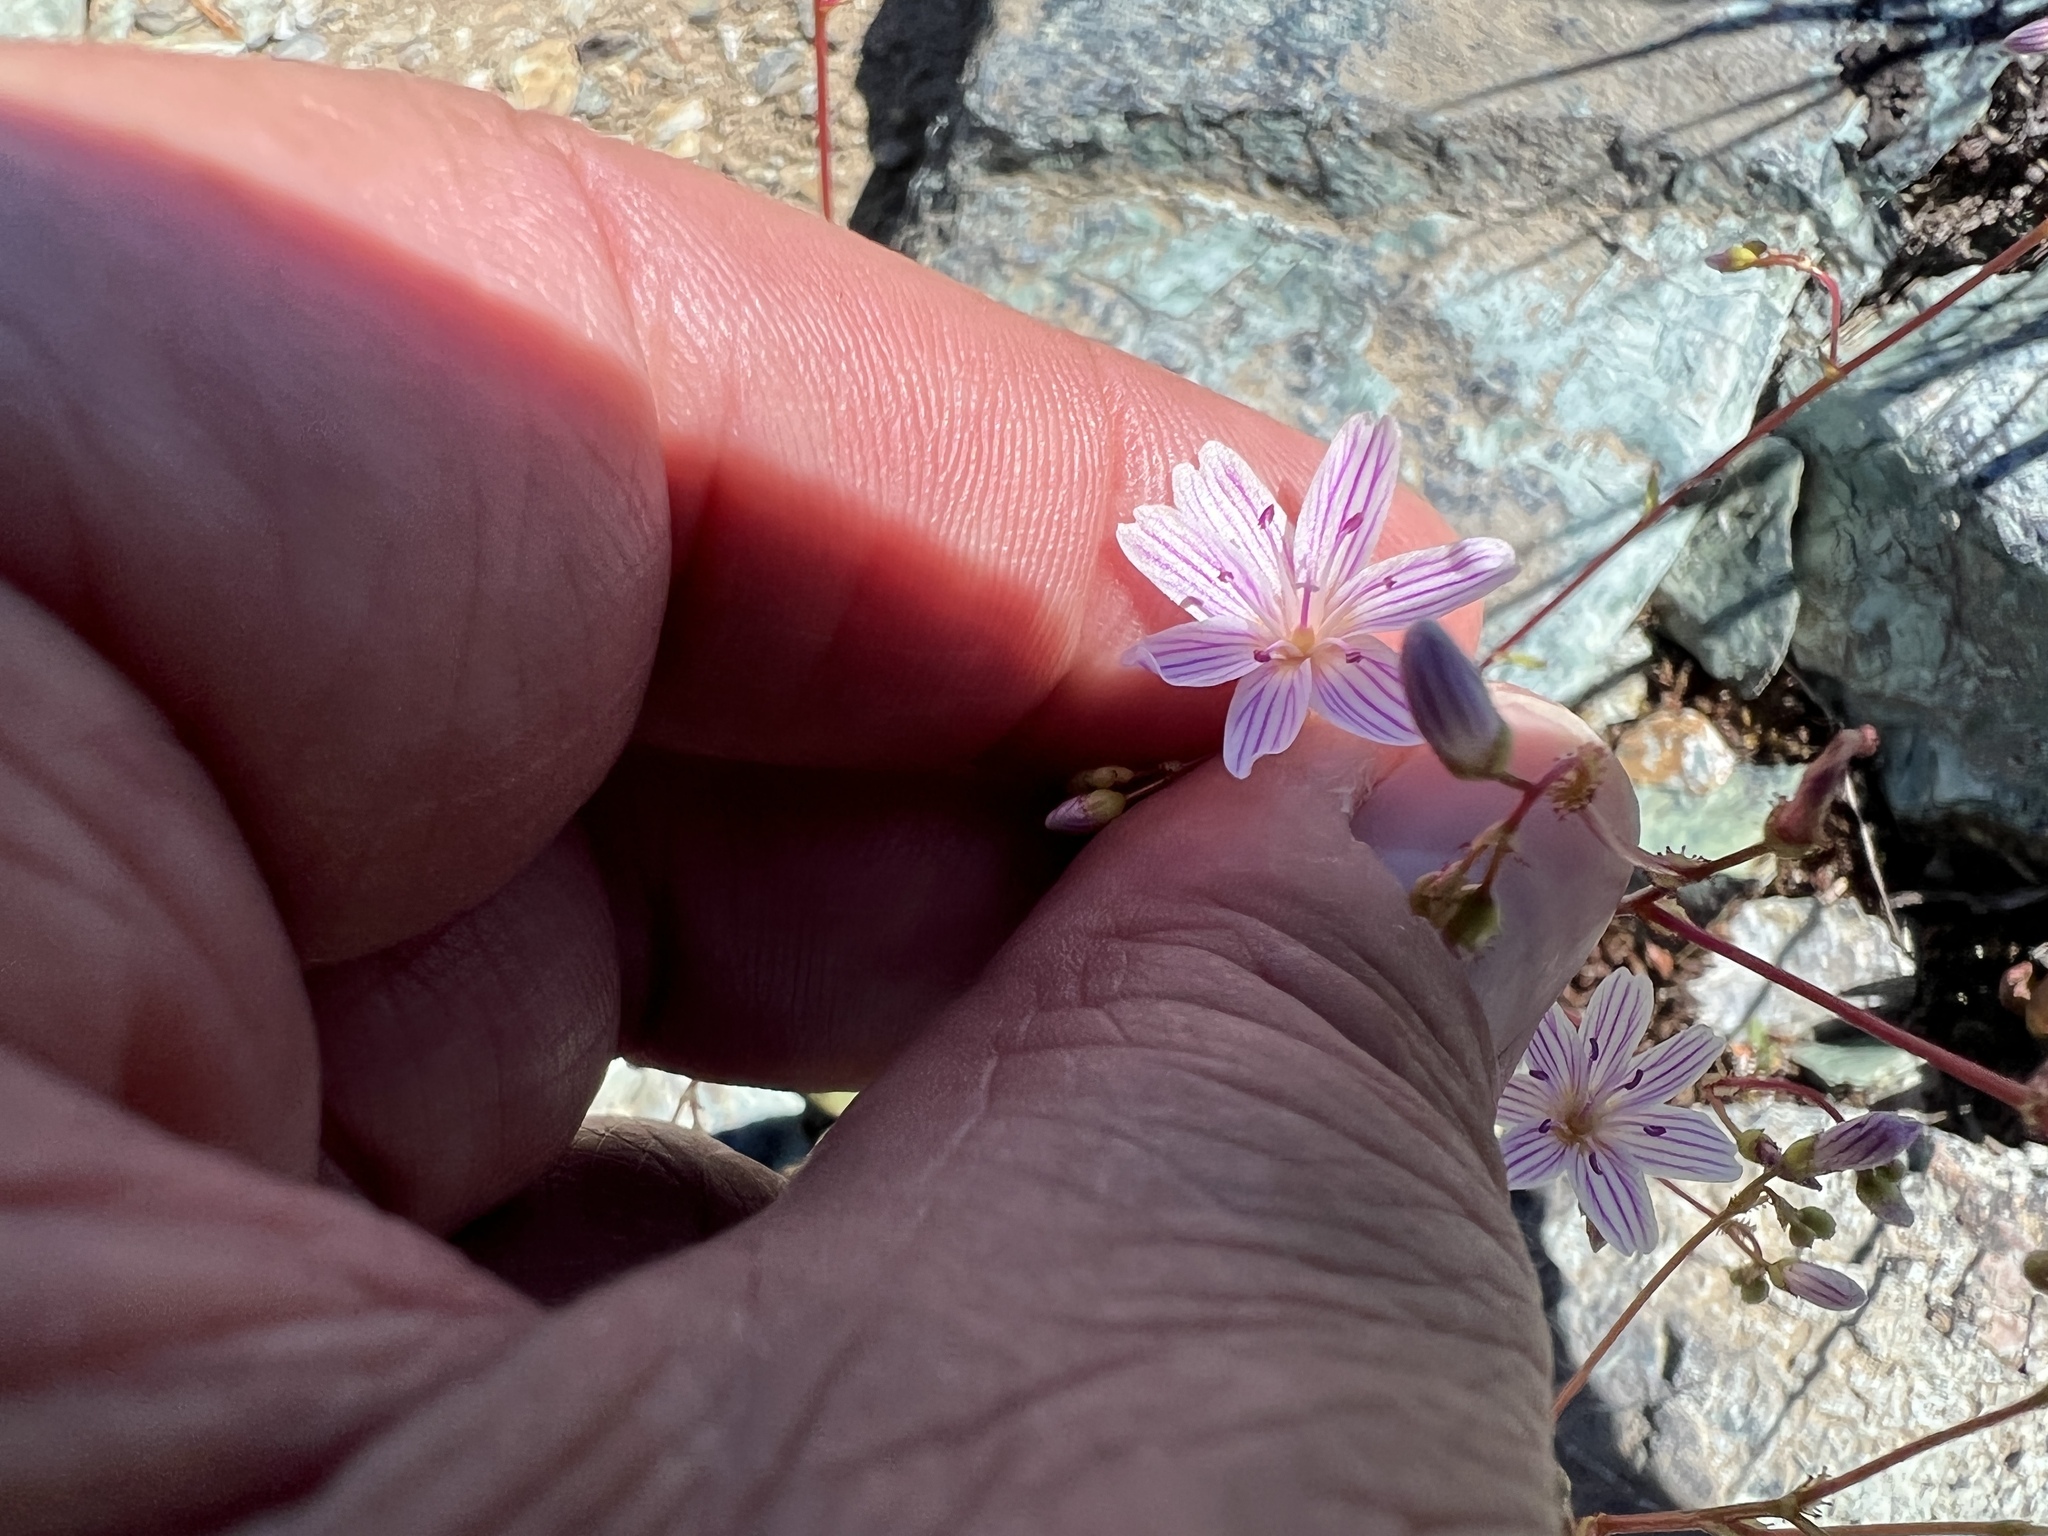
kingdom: Plantae
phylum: Tracheophyta
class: Magnoliopsida
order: Caryophyllales
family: Montiaceae
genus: Lewisia
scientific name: Lewisia columbiana
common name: Columbia lewisia
